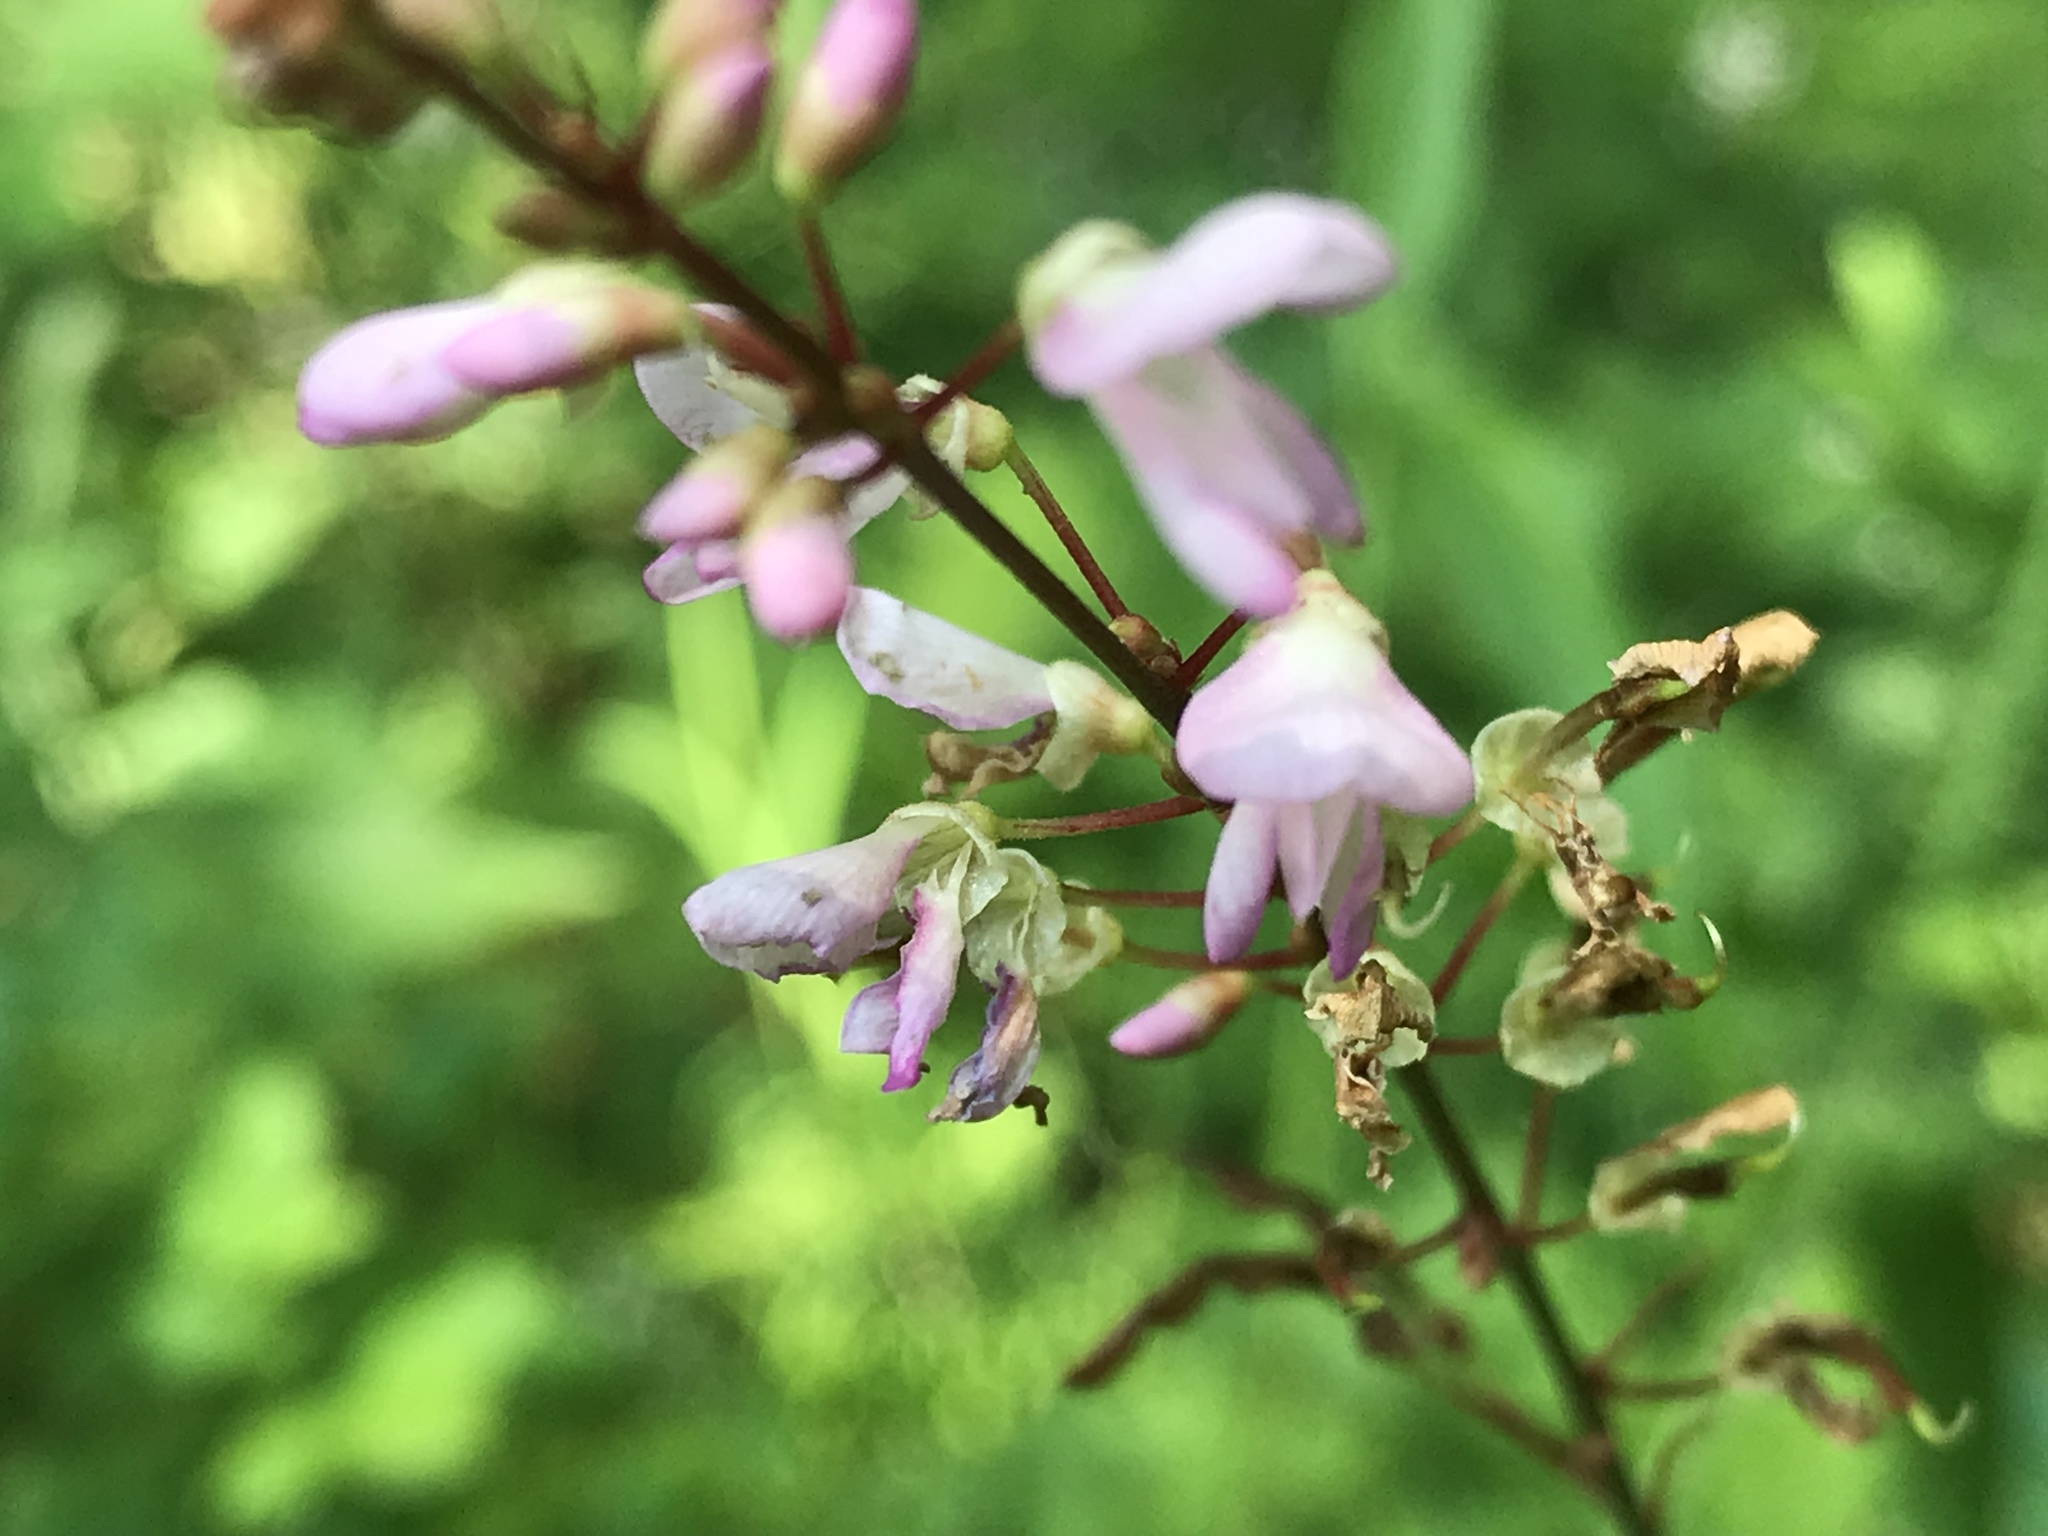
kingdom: Plantae
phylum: Tracheophyta
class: Magnoliopsida
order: Fabales
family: Fabaceae
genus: Hylodesmum
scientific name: Hylodesmum glutinosum
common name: Clustered-leaved tick-trefoil
